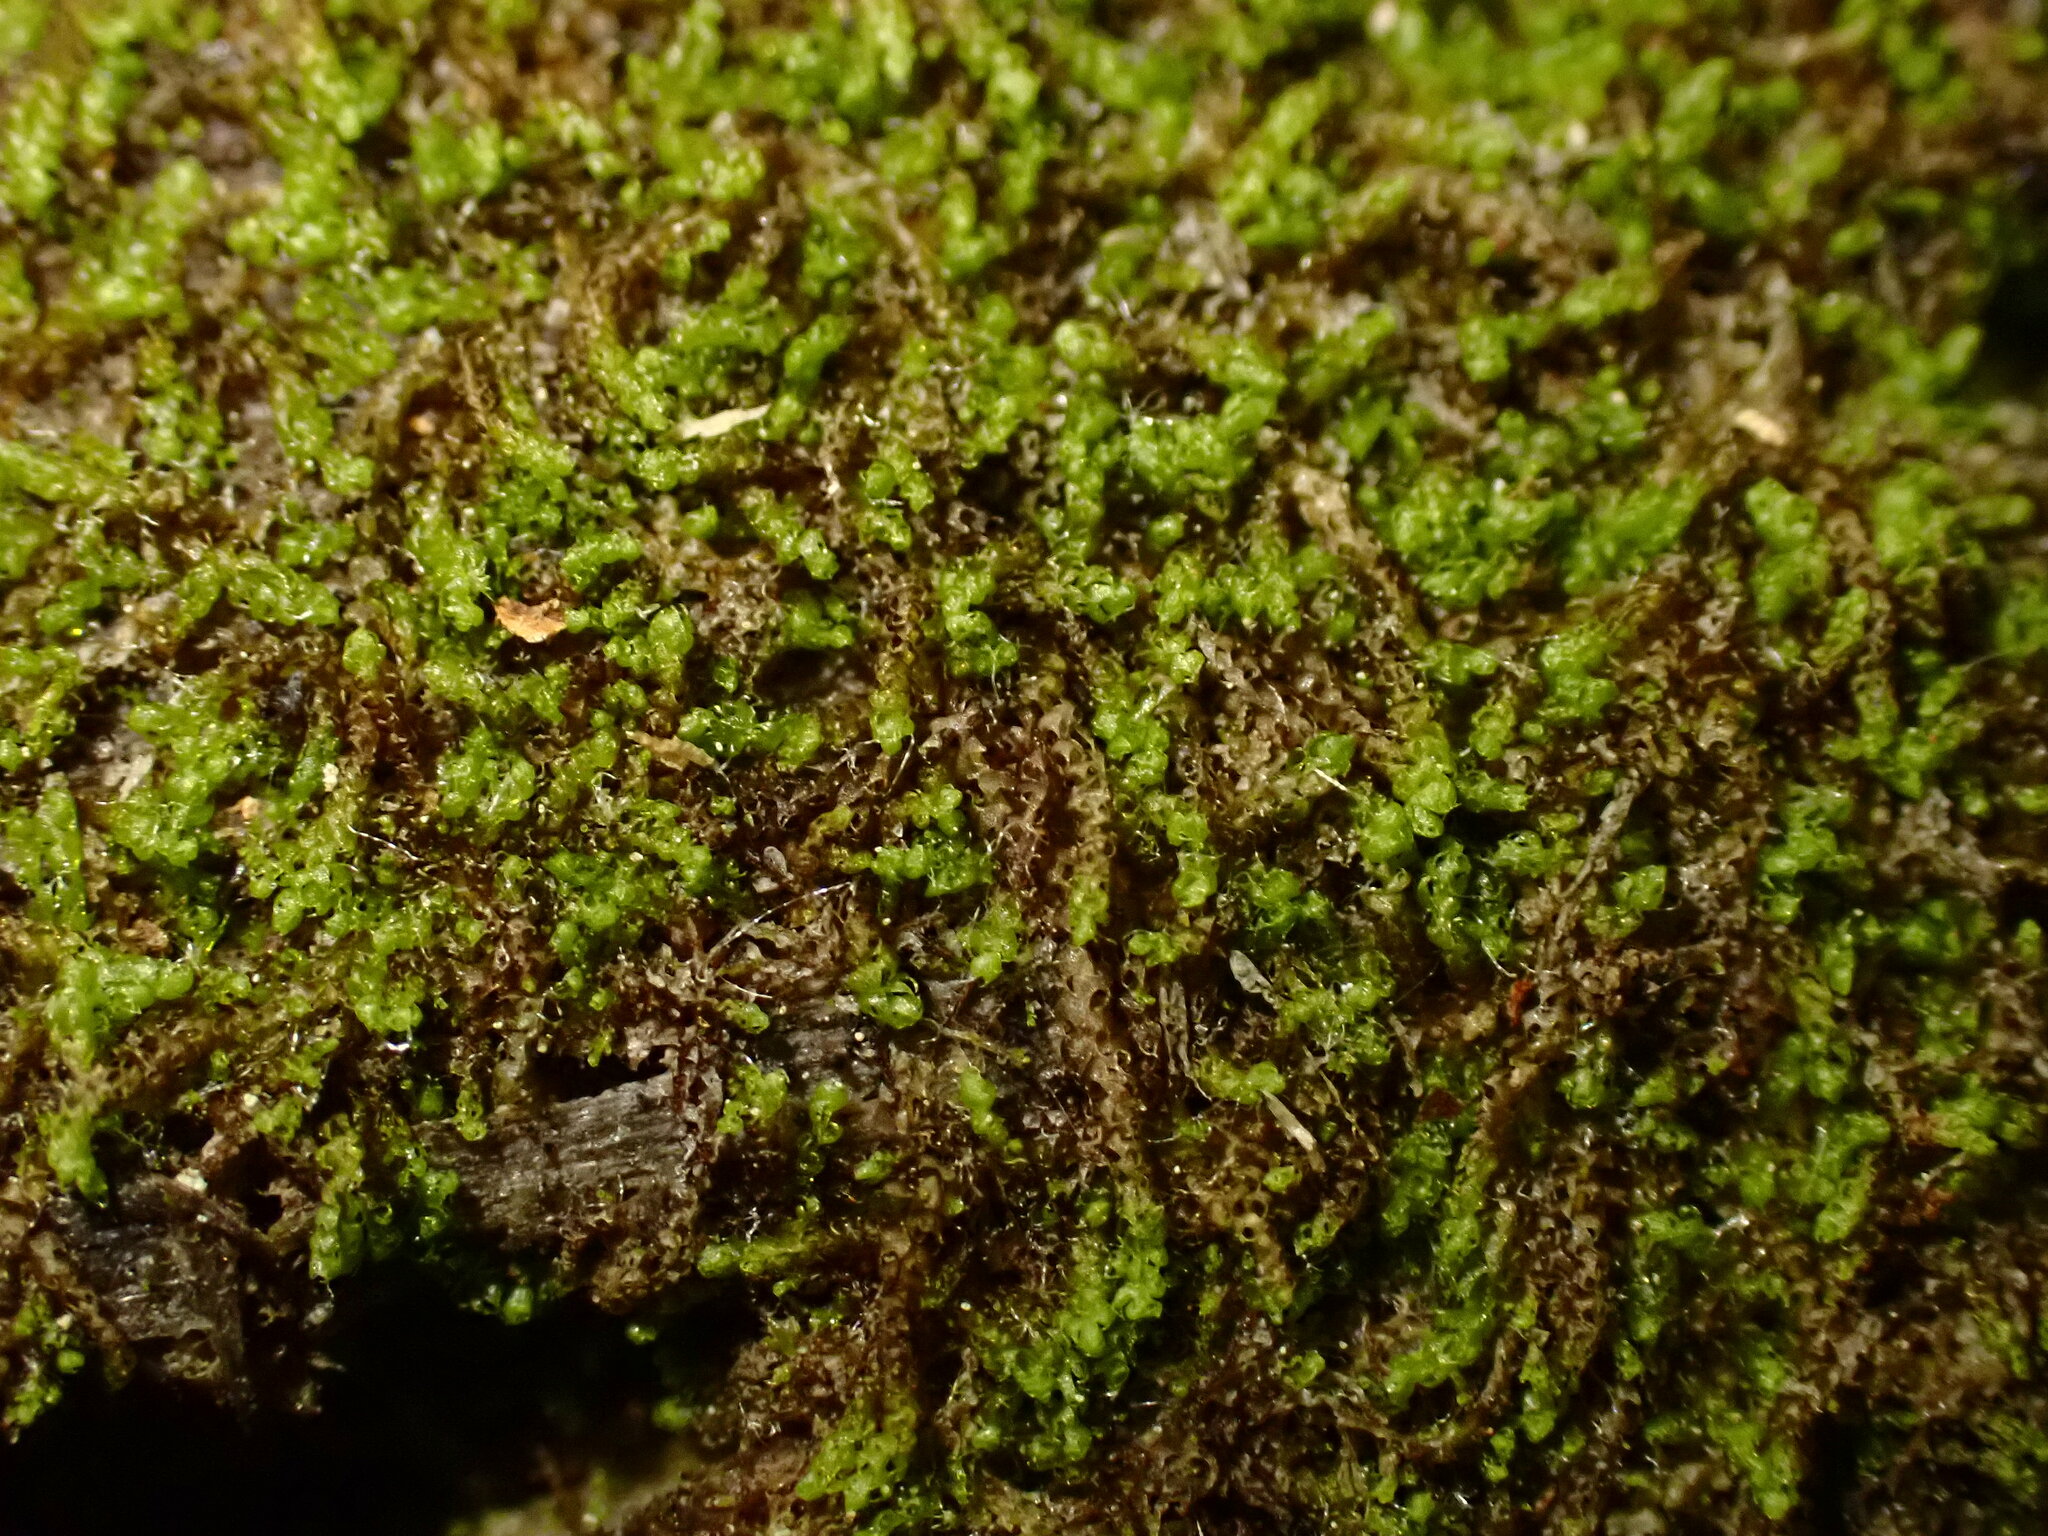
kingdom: Plantae
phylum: Marchantiophyta
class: Jungermanniopsida
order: Jungermanniales
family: Cephaloziaceae
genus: Nowellia
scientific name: Nowellia curvifolia
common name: Wood rustwort
